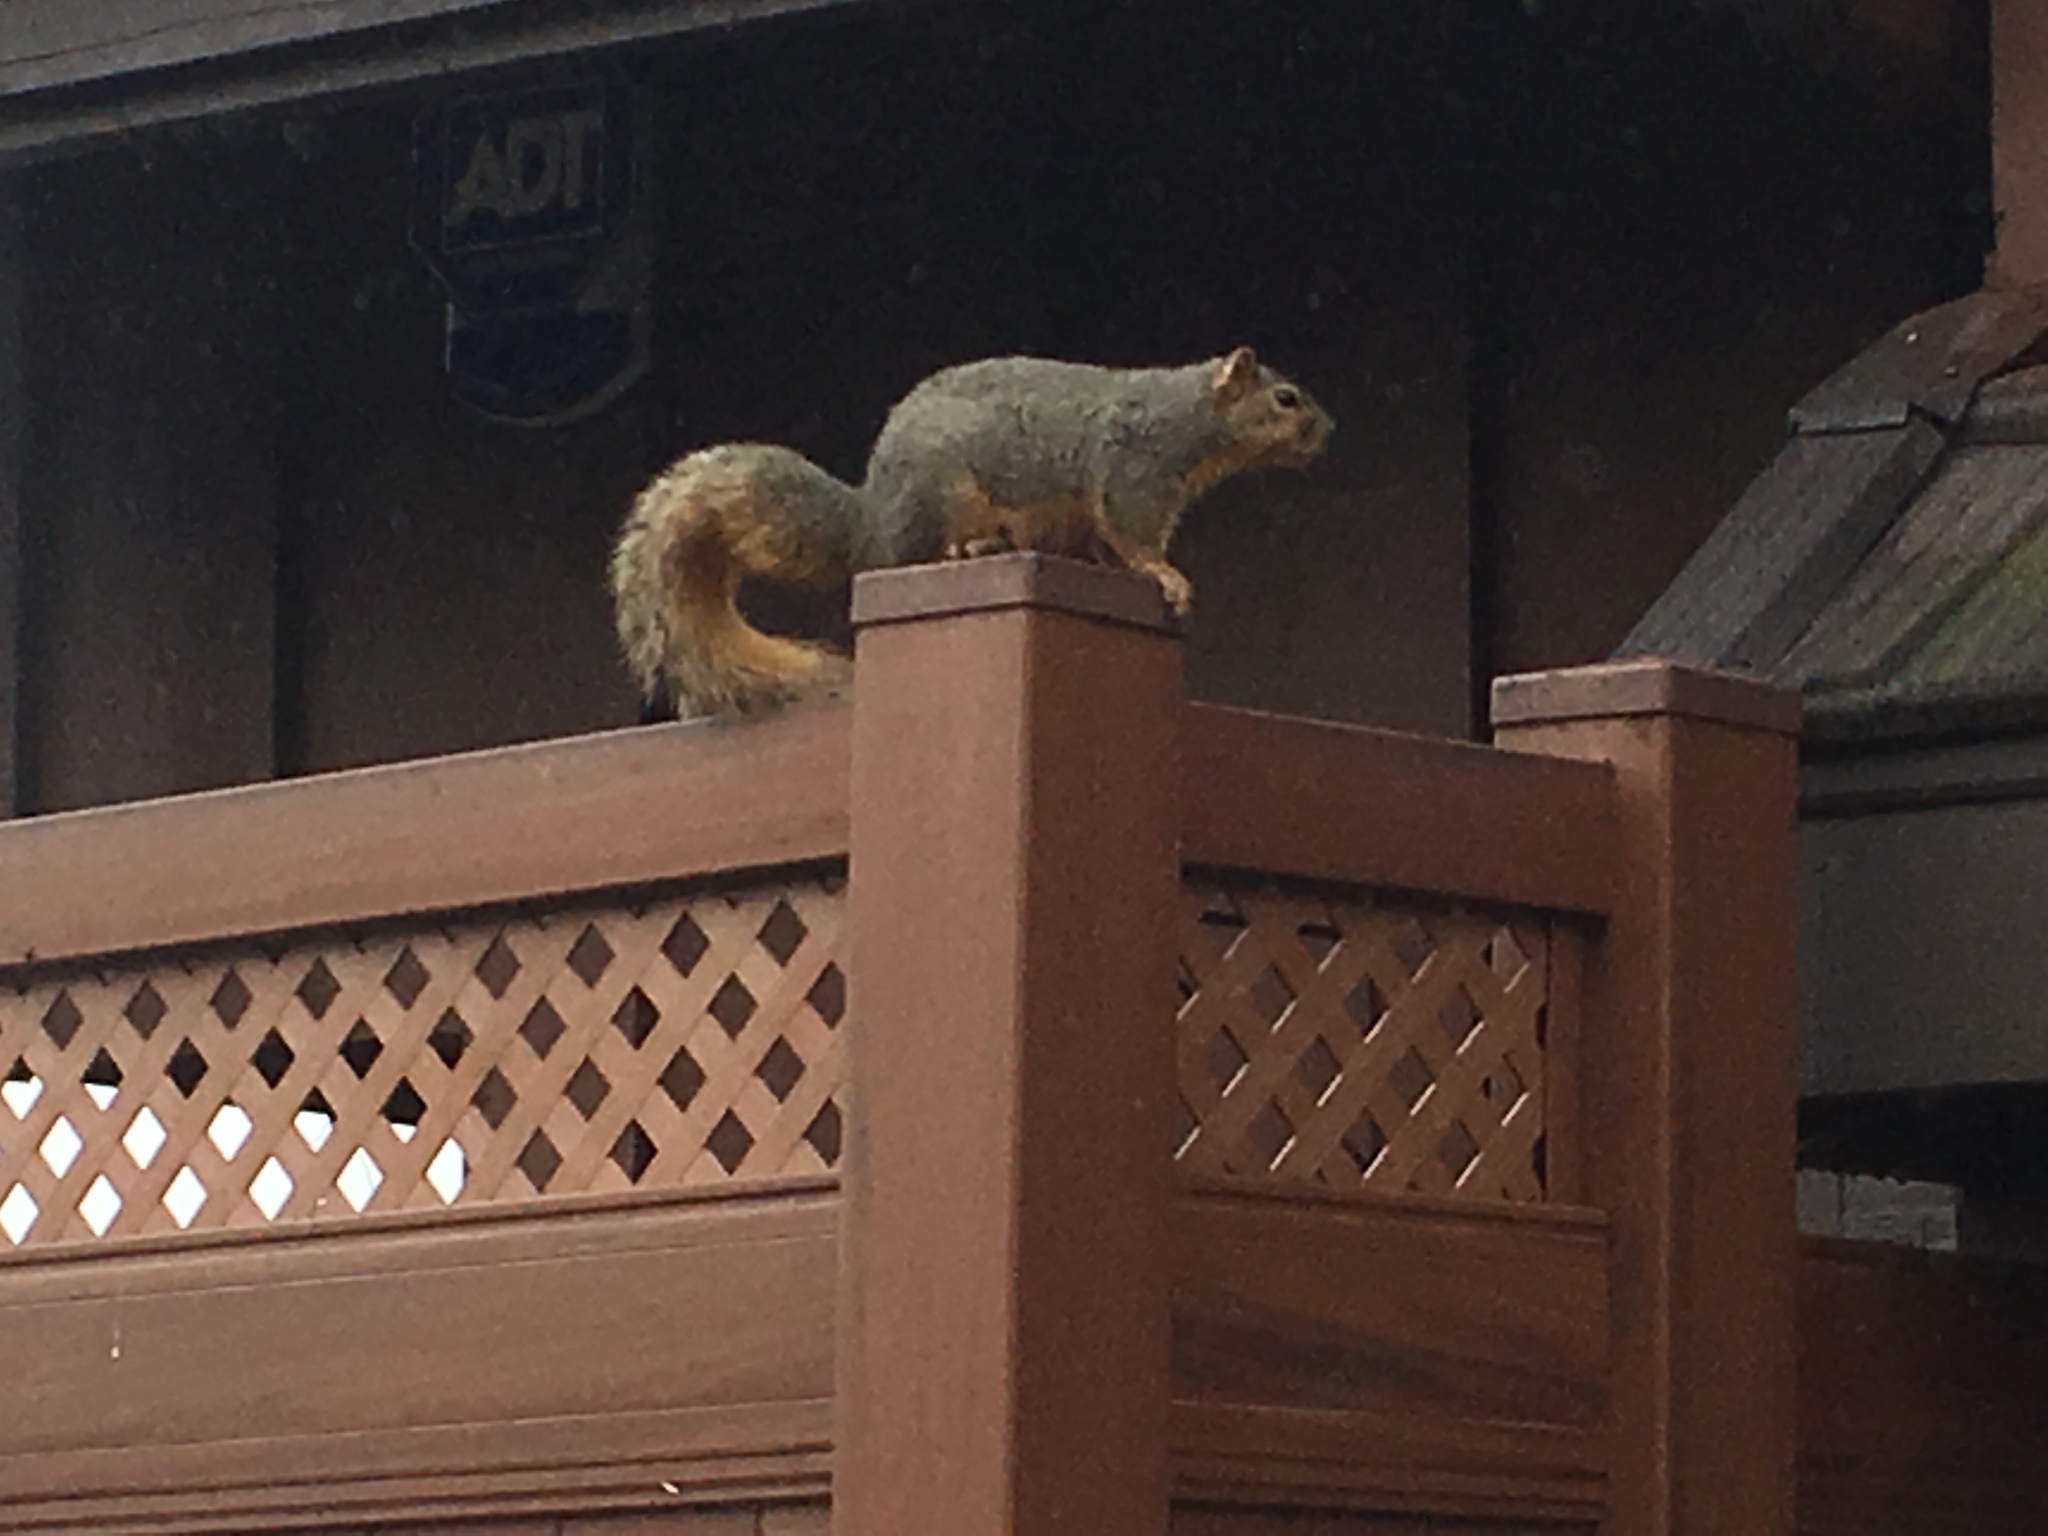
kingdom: Animalia
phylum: Chordata
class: Mammalia
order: Rodentia
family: Sciuridae
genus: Sciurus
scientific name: Sciurus niger
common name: Fox squirrel
